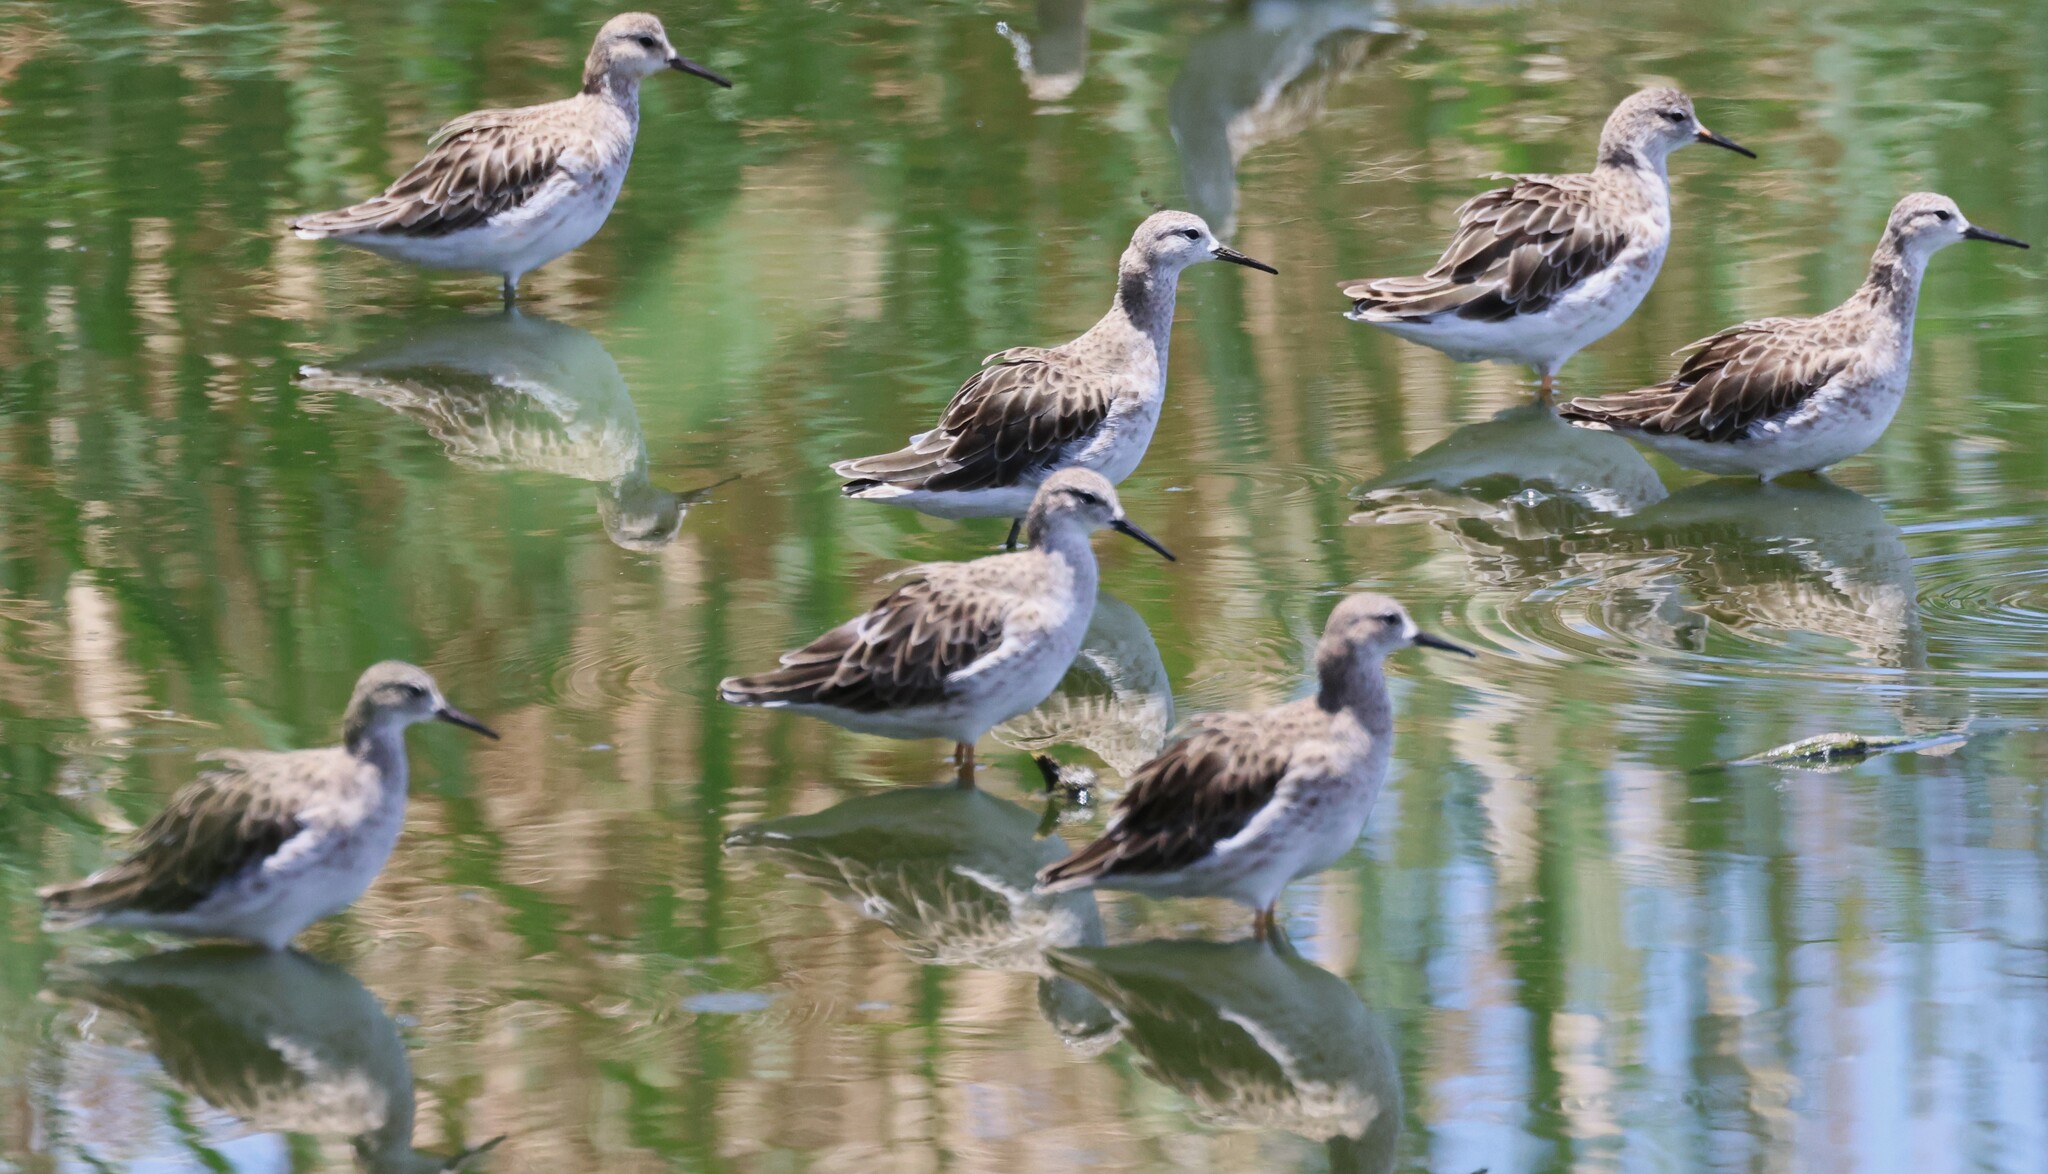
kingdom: Animalia
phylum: Chordata
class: Aves
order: Charadriiformes
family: Scolopacidae
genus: Calidris
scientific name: Calidris pugnax
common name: Ruff
